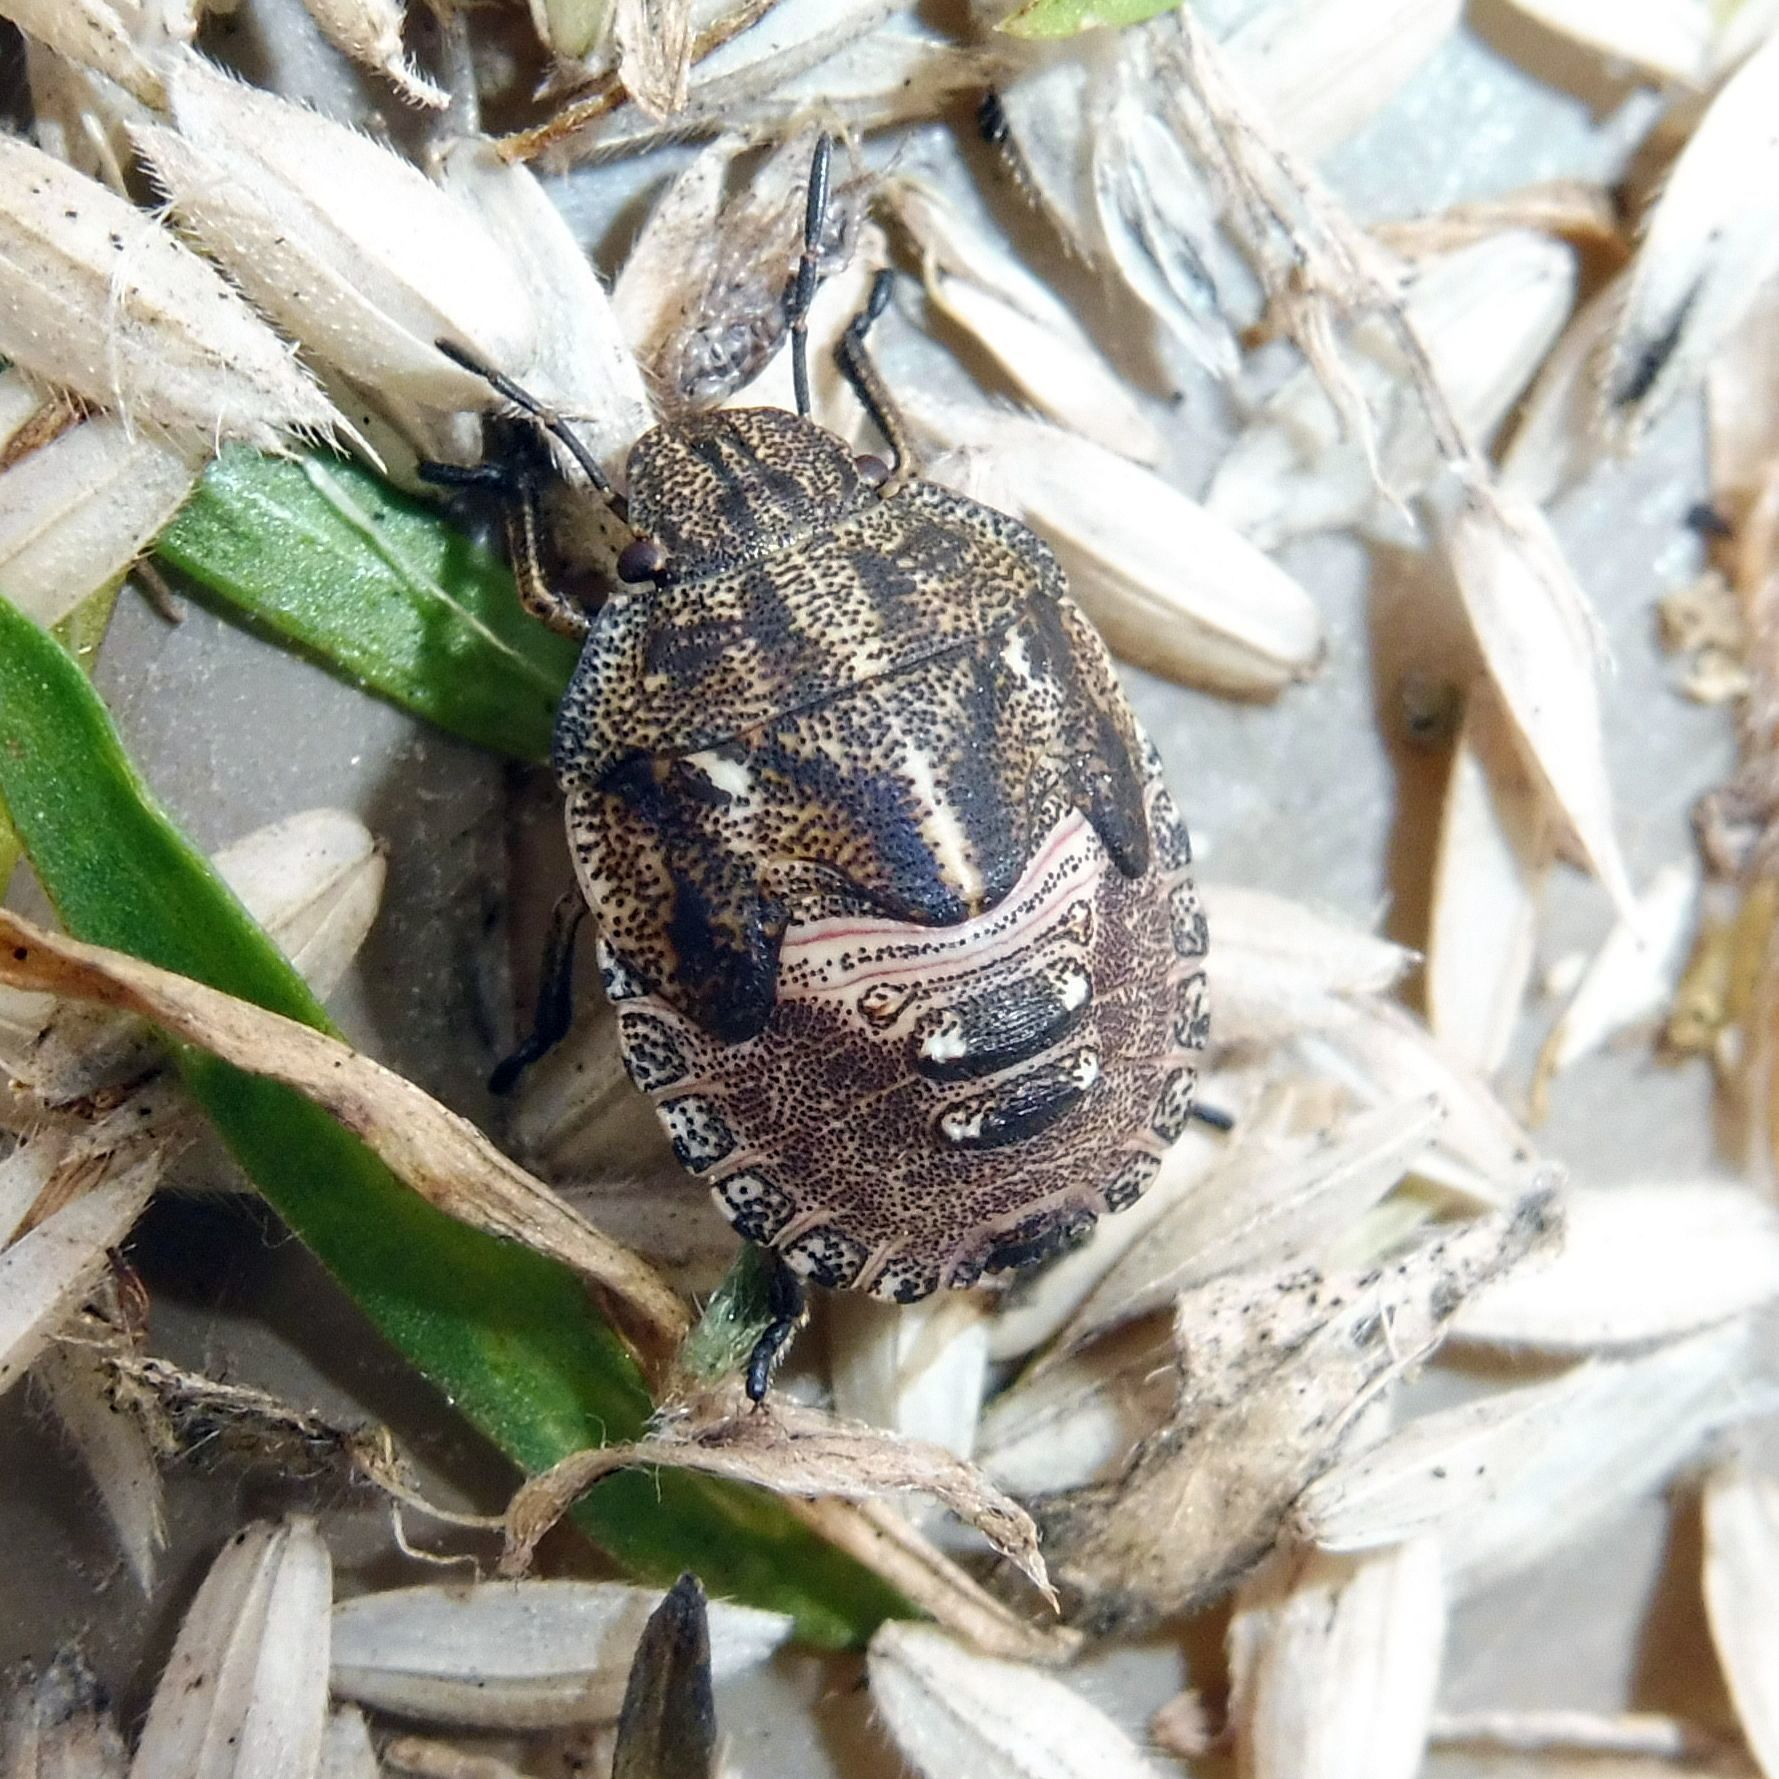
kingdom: Animalia
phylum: Arthropoda
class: Insecta
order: Hemiptera
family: Scutelleridae
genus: Eurygaster
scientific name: Eurygaster testudinaria
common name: Tortoise bug
